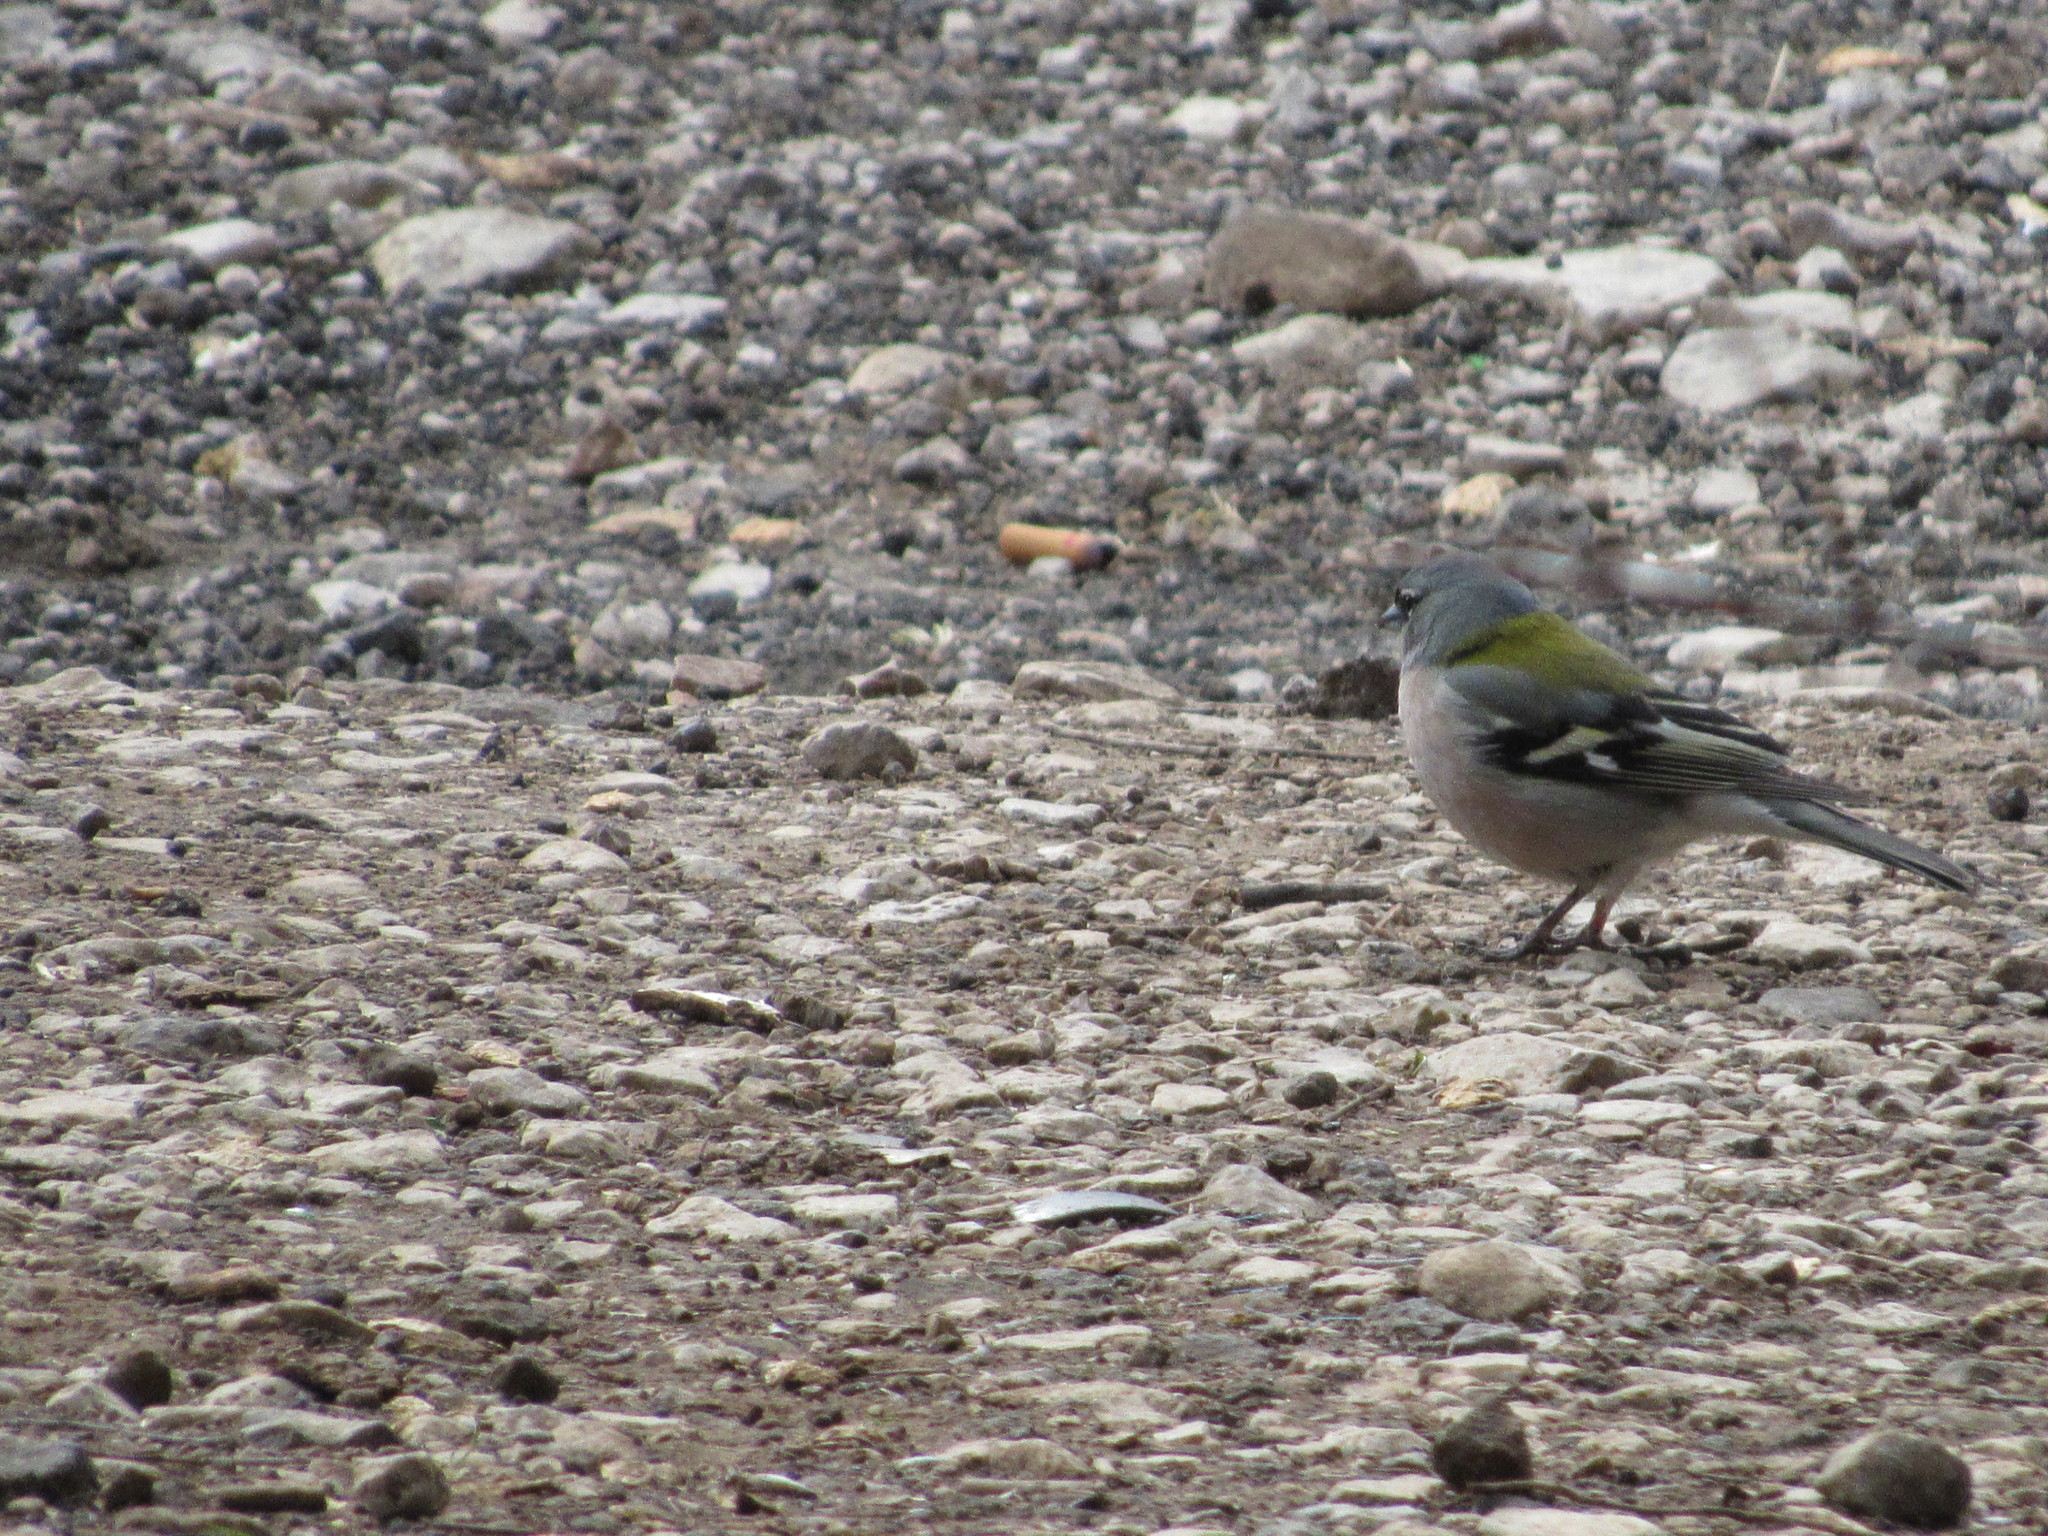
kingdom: Animalia
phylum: Chordata
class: Aves
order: Passeriformes
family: Fringillidae
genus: Fringilla
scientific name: Fringilla spodiogenys
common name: African chaffinch
